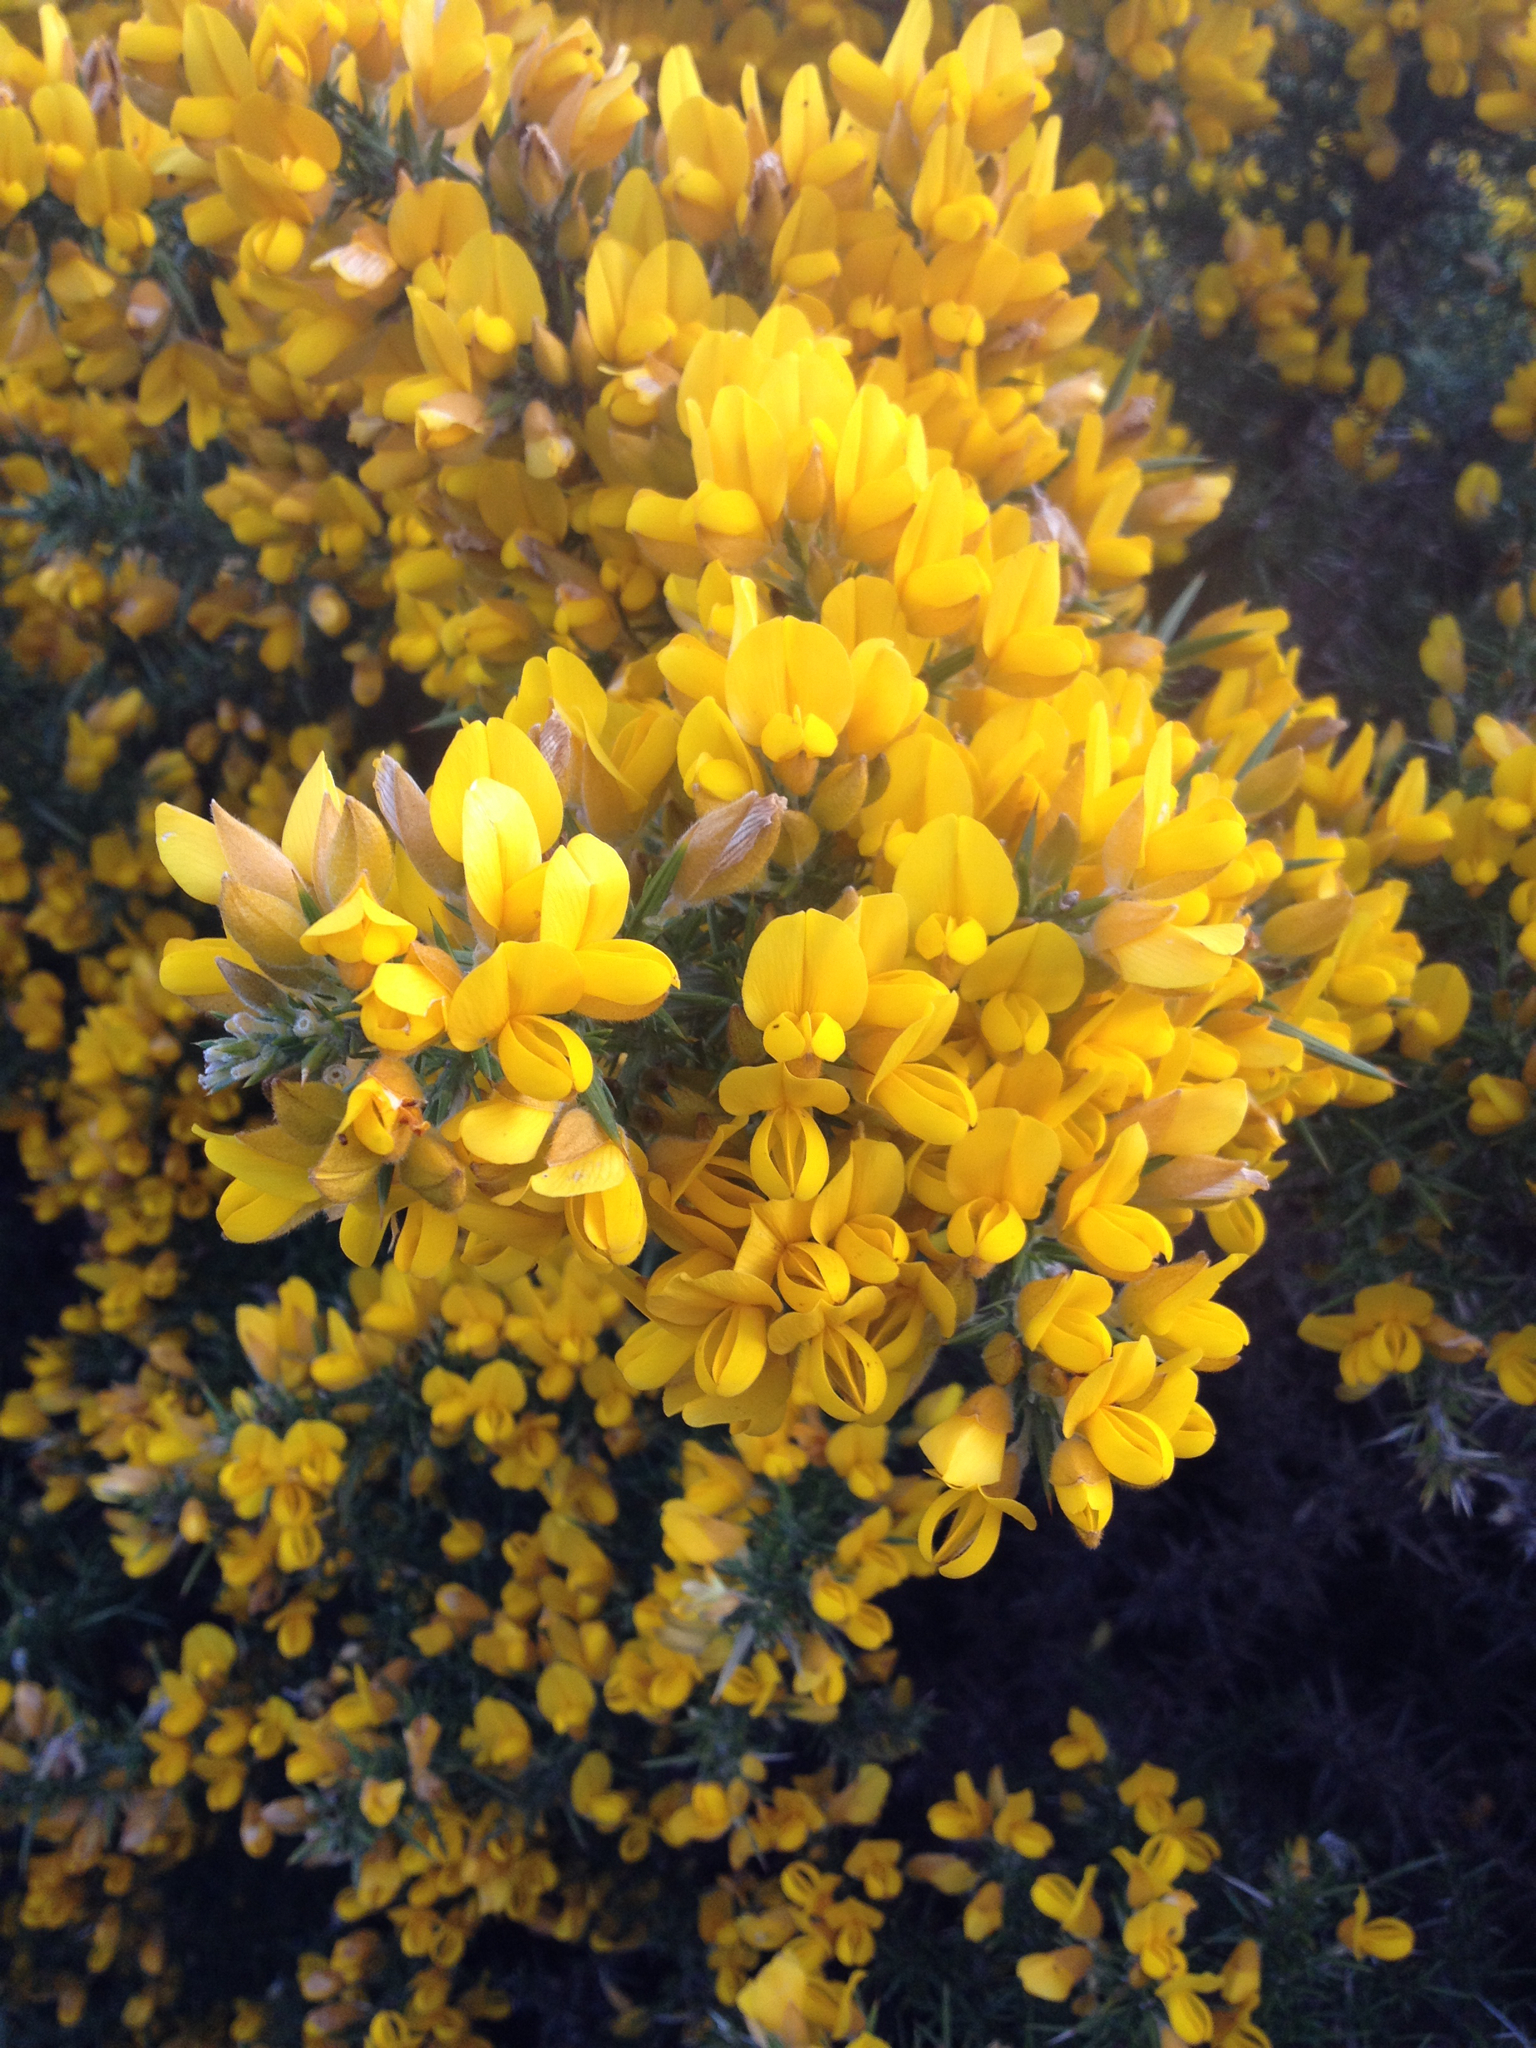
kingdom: Plantae
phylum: Tracheophyta
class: Magnoliopsida
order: Fabales
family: Fabaceae
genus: Ulex
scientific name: Ulex europaeus
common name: Common gorse
